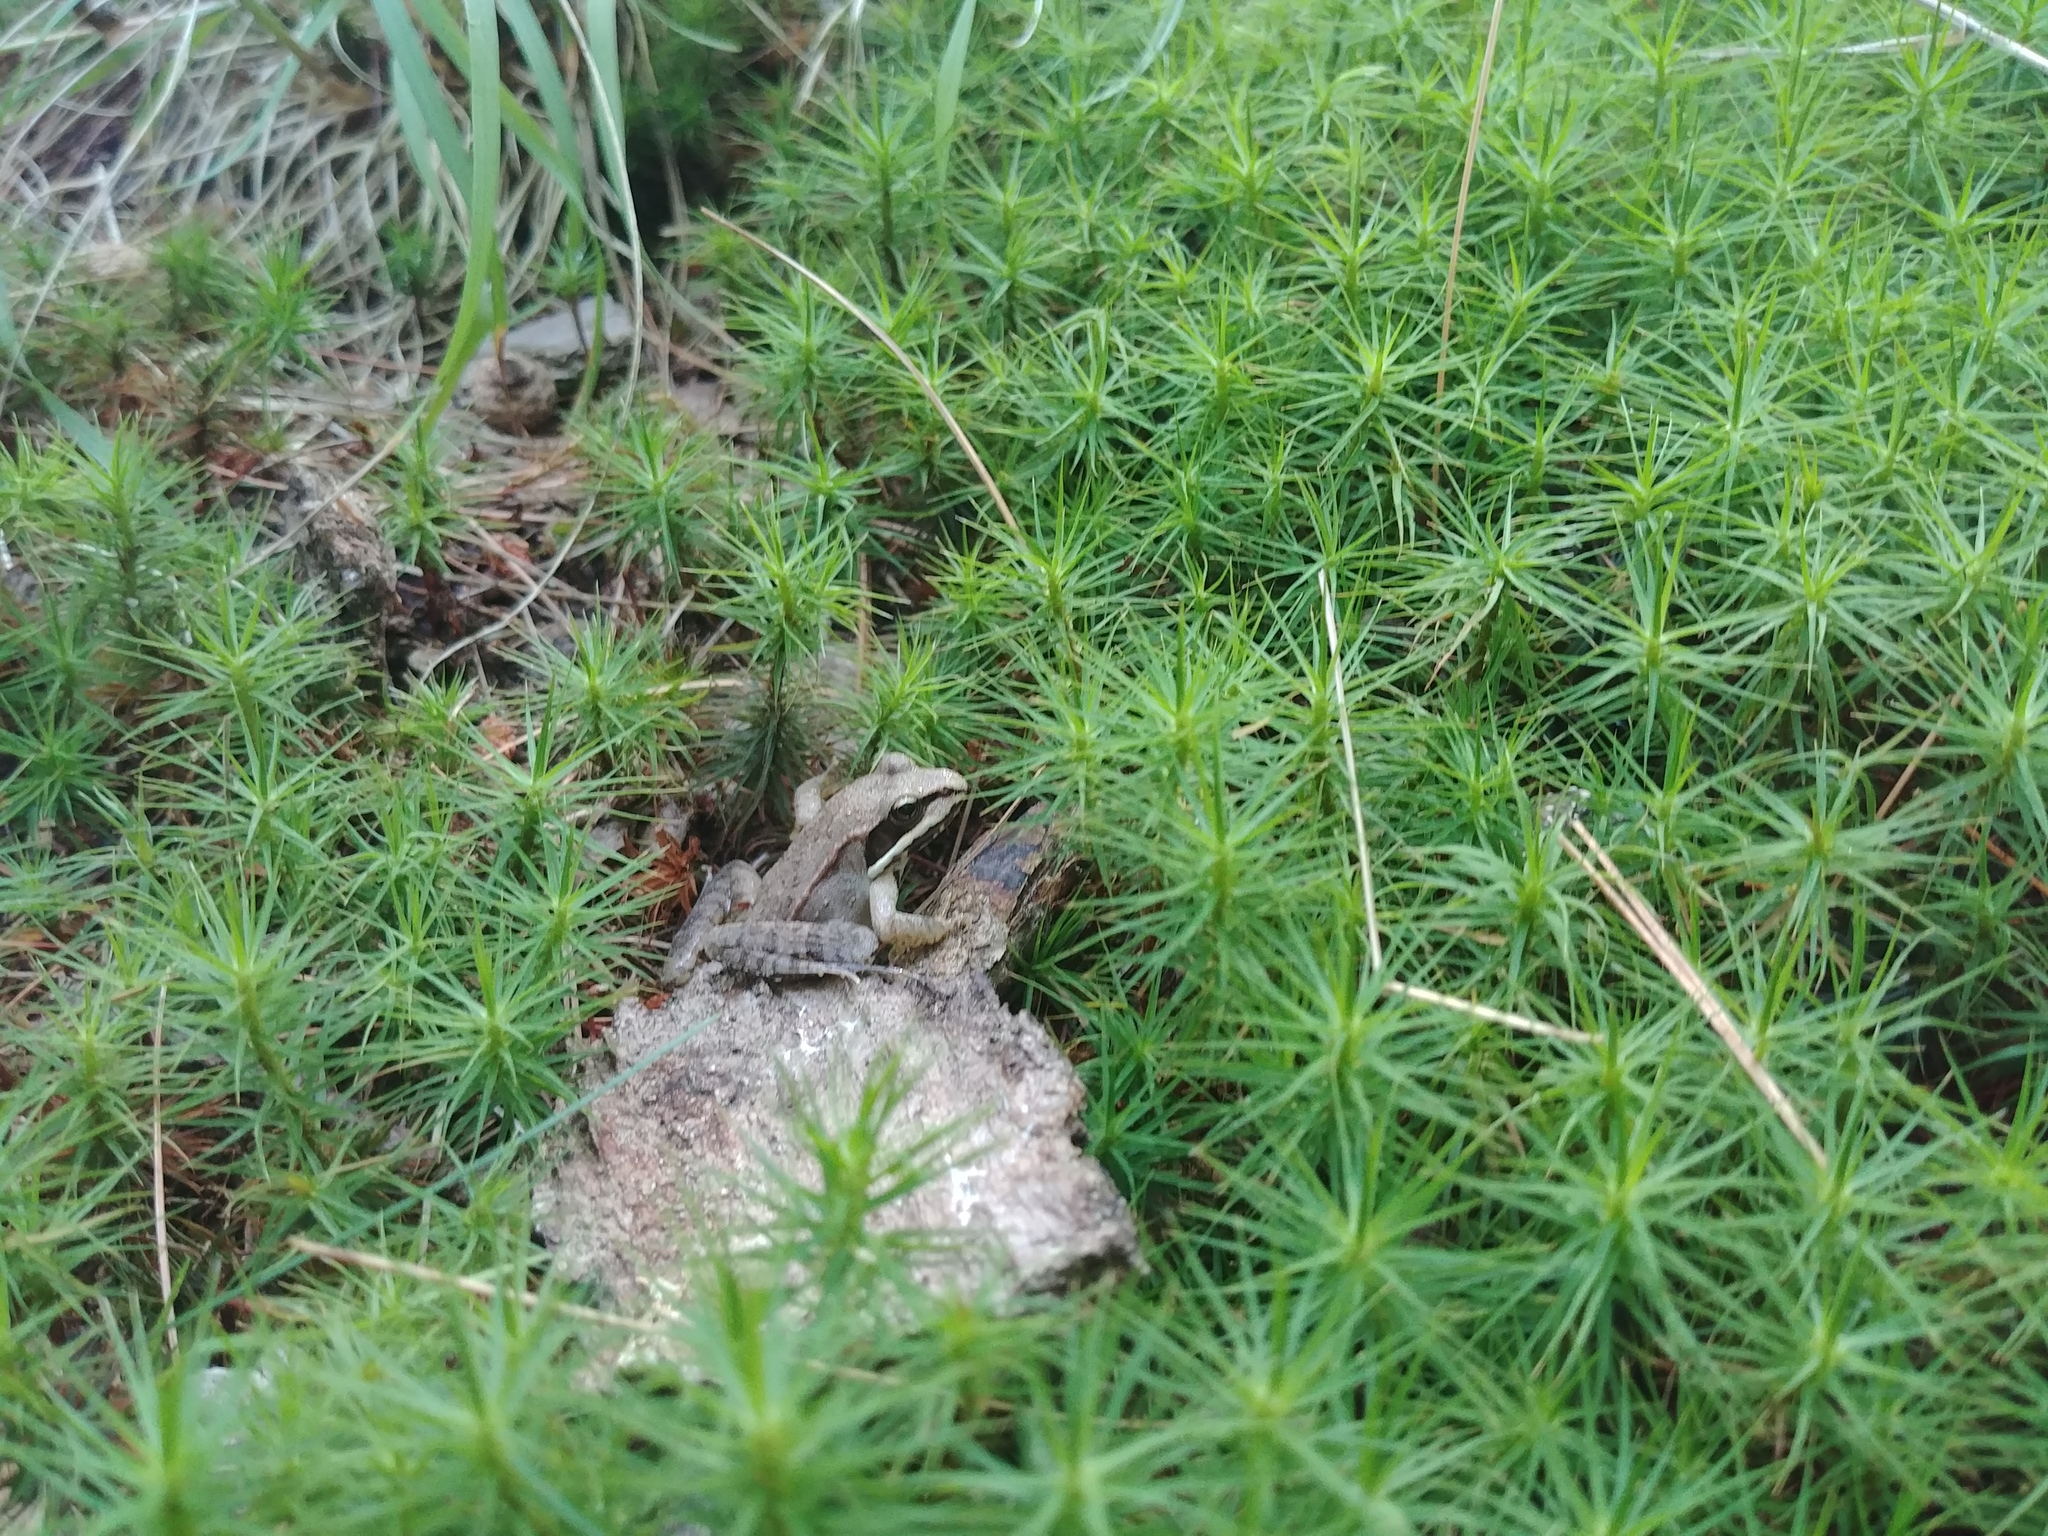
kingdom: Animalia
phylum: Chordata
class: Amphibia
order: Anura
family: Ranidae
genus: Lithobates
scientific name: Lithobates sylvaticus
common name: Wood frog
